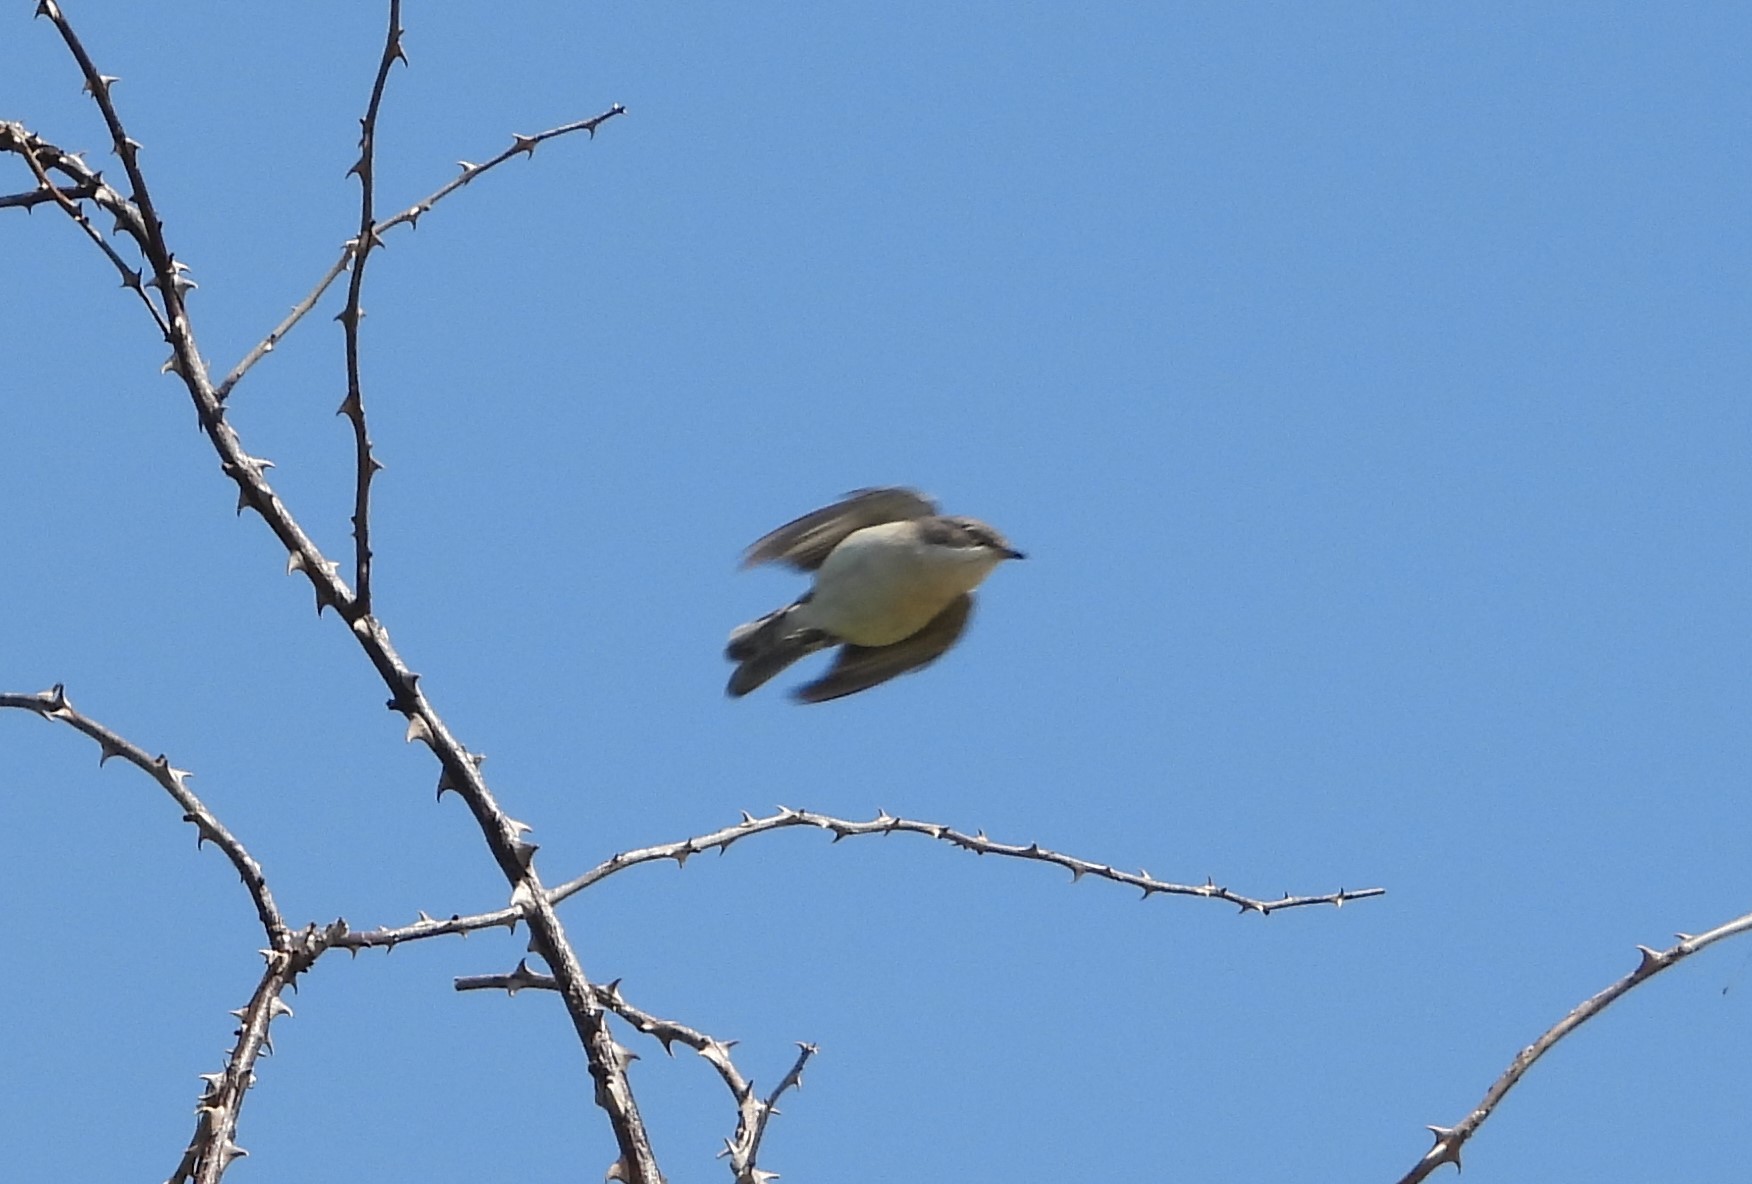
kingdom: Animalia
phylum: Chordata
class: Aves
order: Passeriformes
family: Sylviidae
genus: Sylvia
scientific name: Sylvia curruca
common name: Lesser whitethroat
